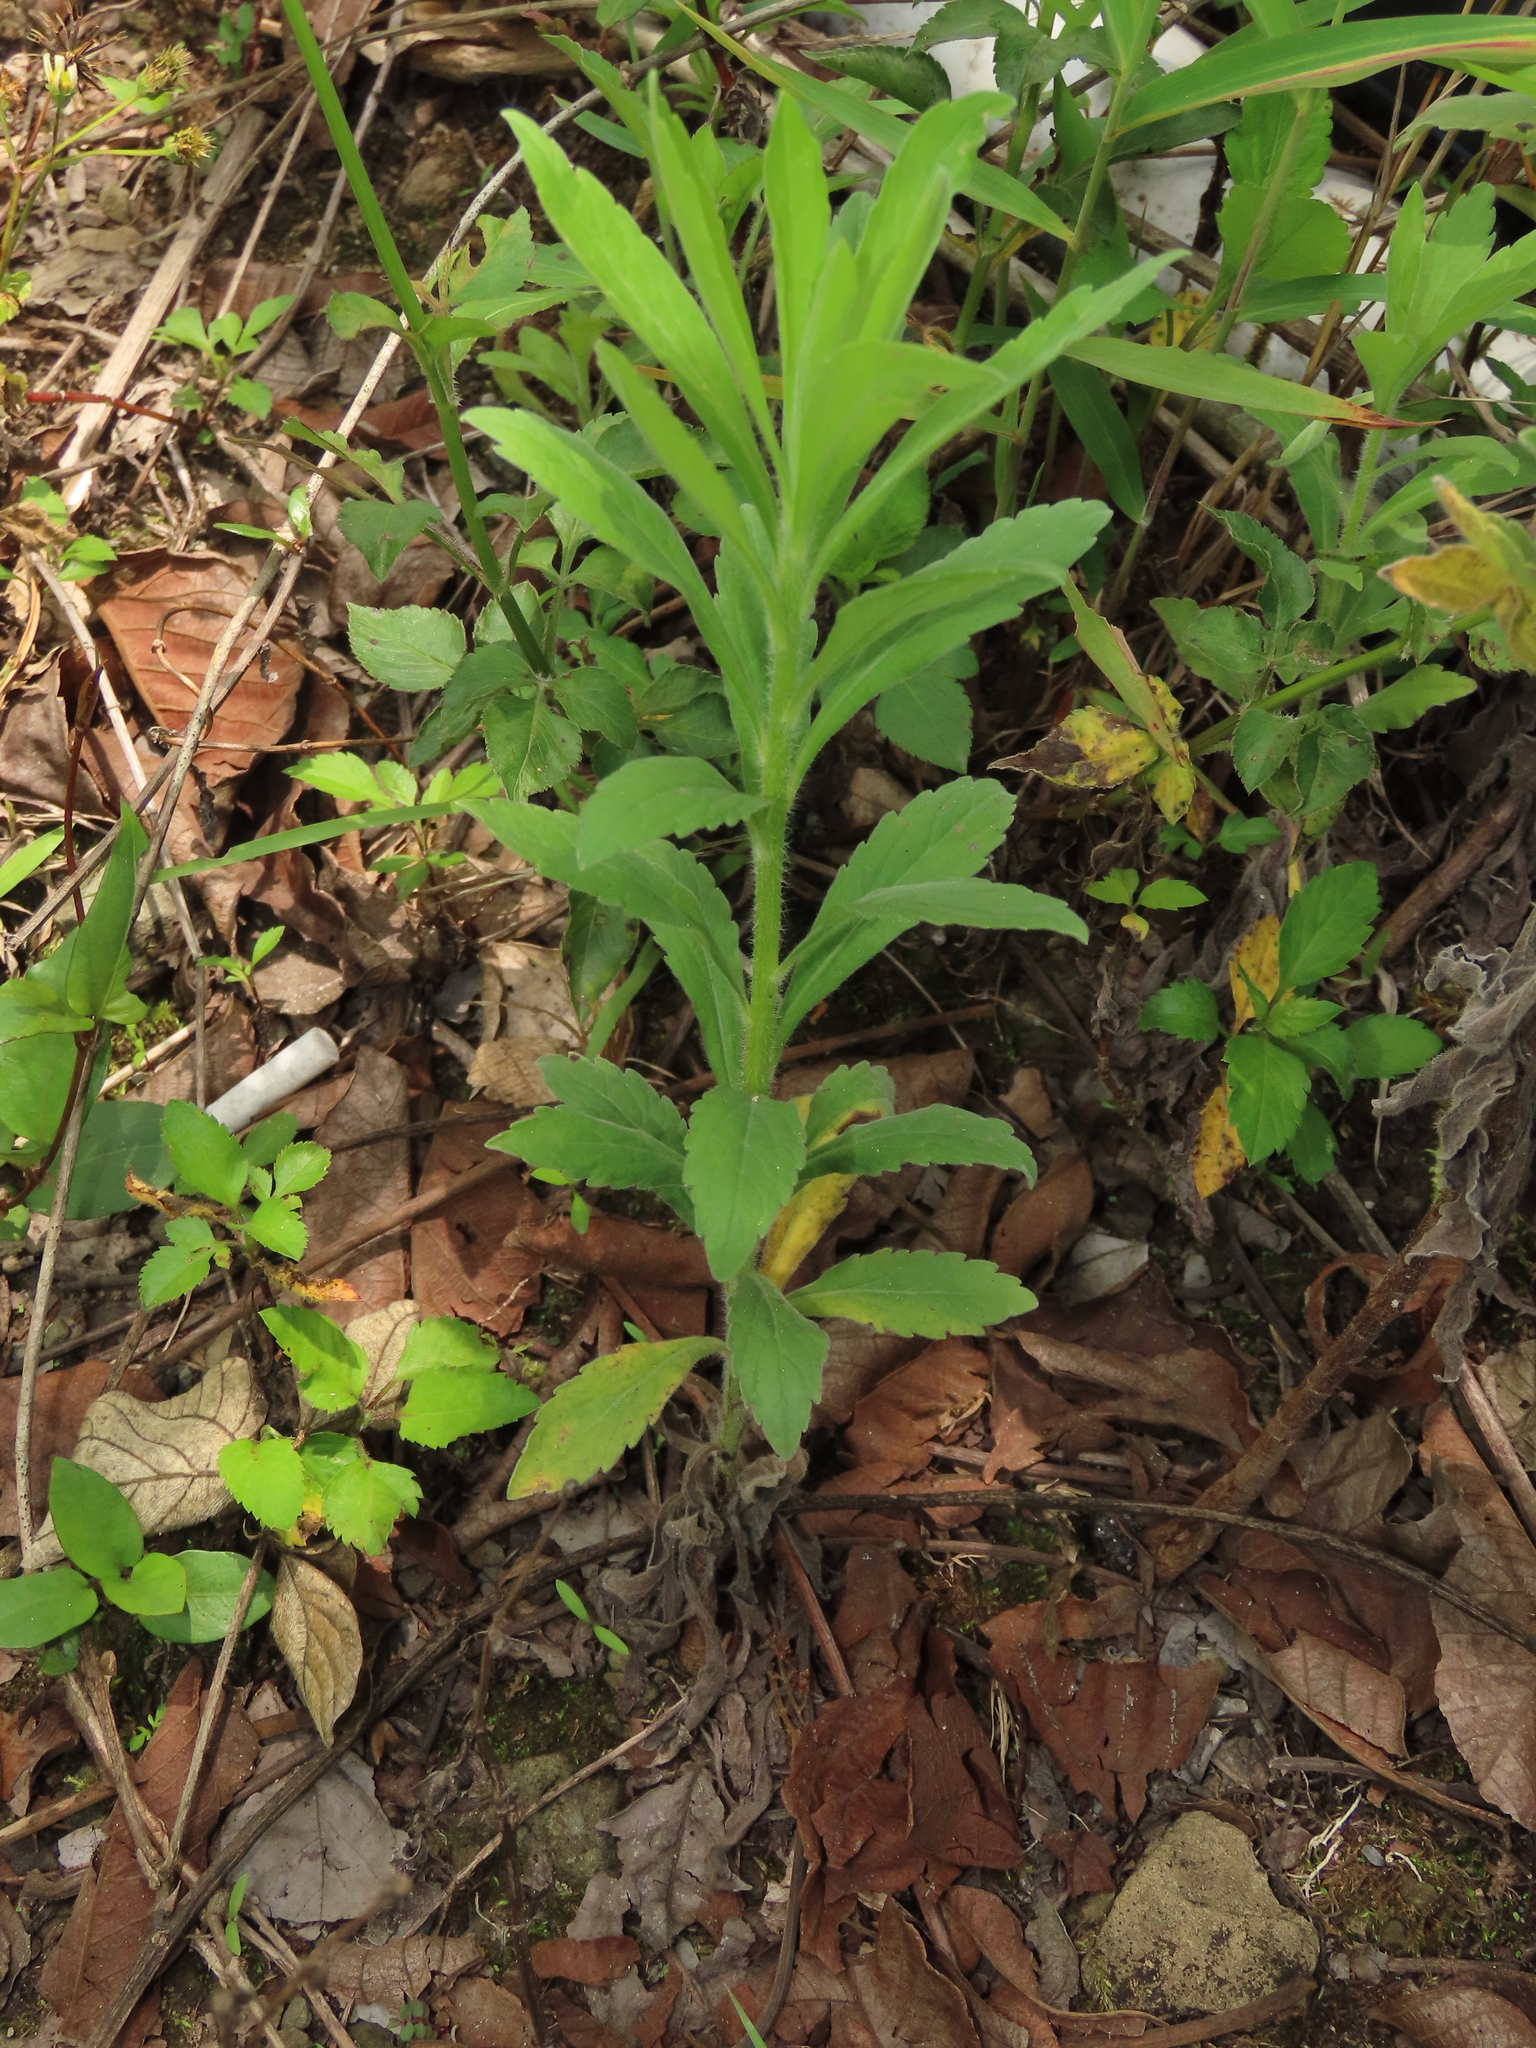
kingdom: Plantae
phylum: Tracheophyta
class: Magnoliopsida
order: Asterales
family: Asteraceae
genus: Erigeron
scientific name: Erigeron sumatrensis
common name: Daisy
